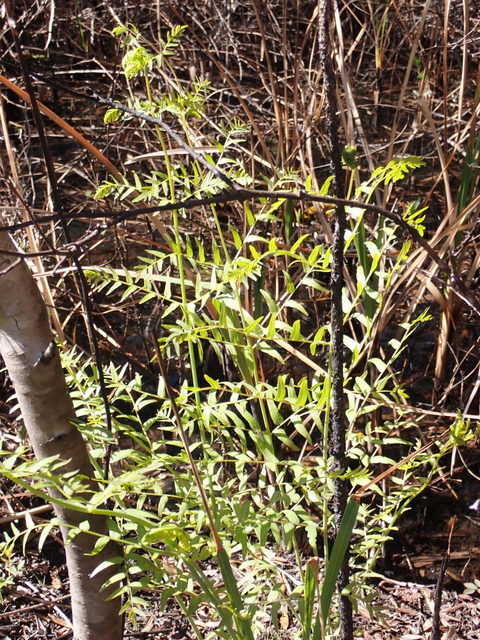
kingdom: Plantae
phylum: Tracheophyta
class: Polypodiopsida
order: Osmundales
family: Osmundaceae
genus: Osmunda
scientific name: Osmunda spectabilis
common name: American royal fern
